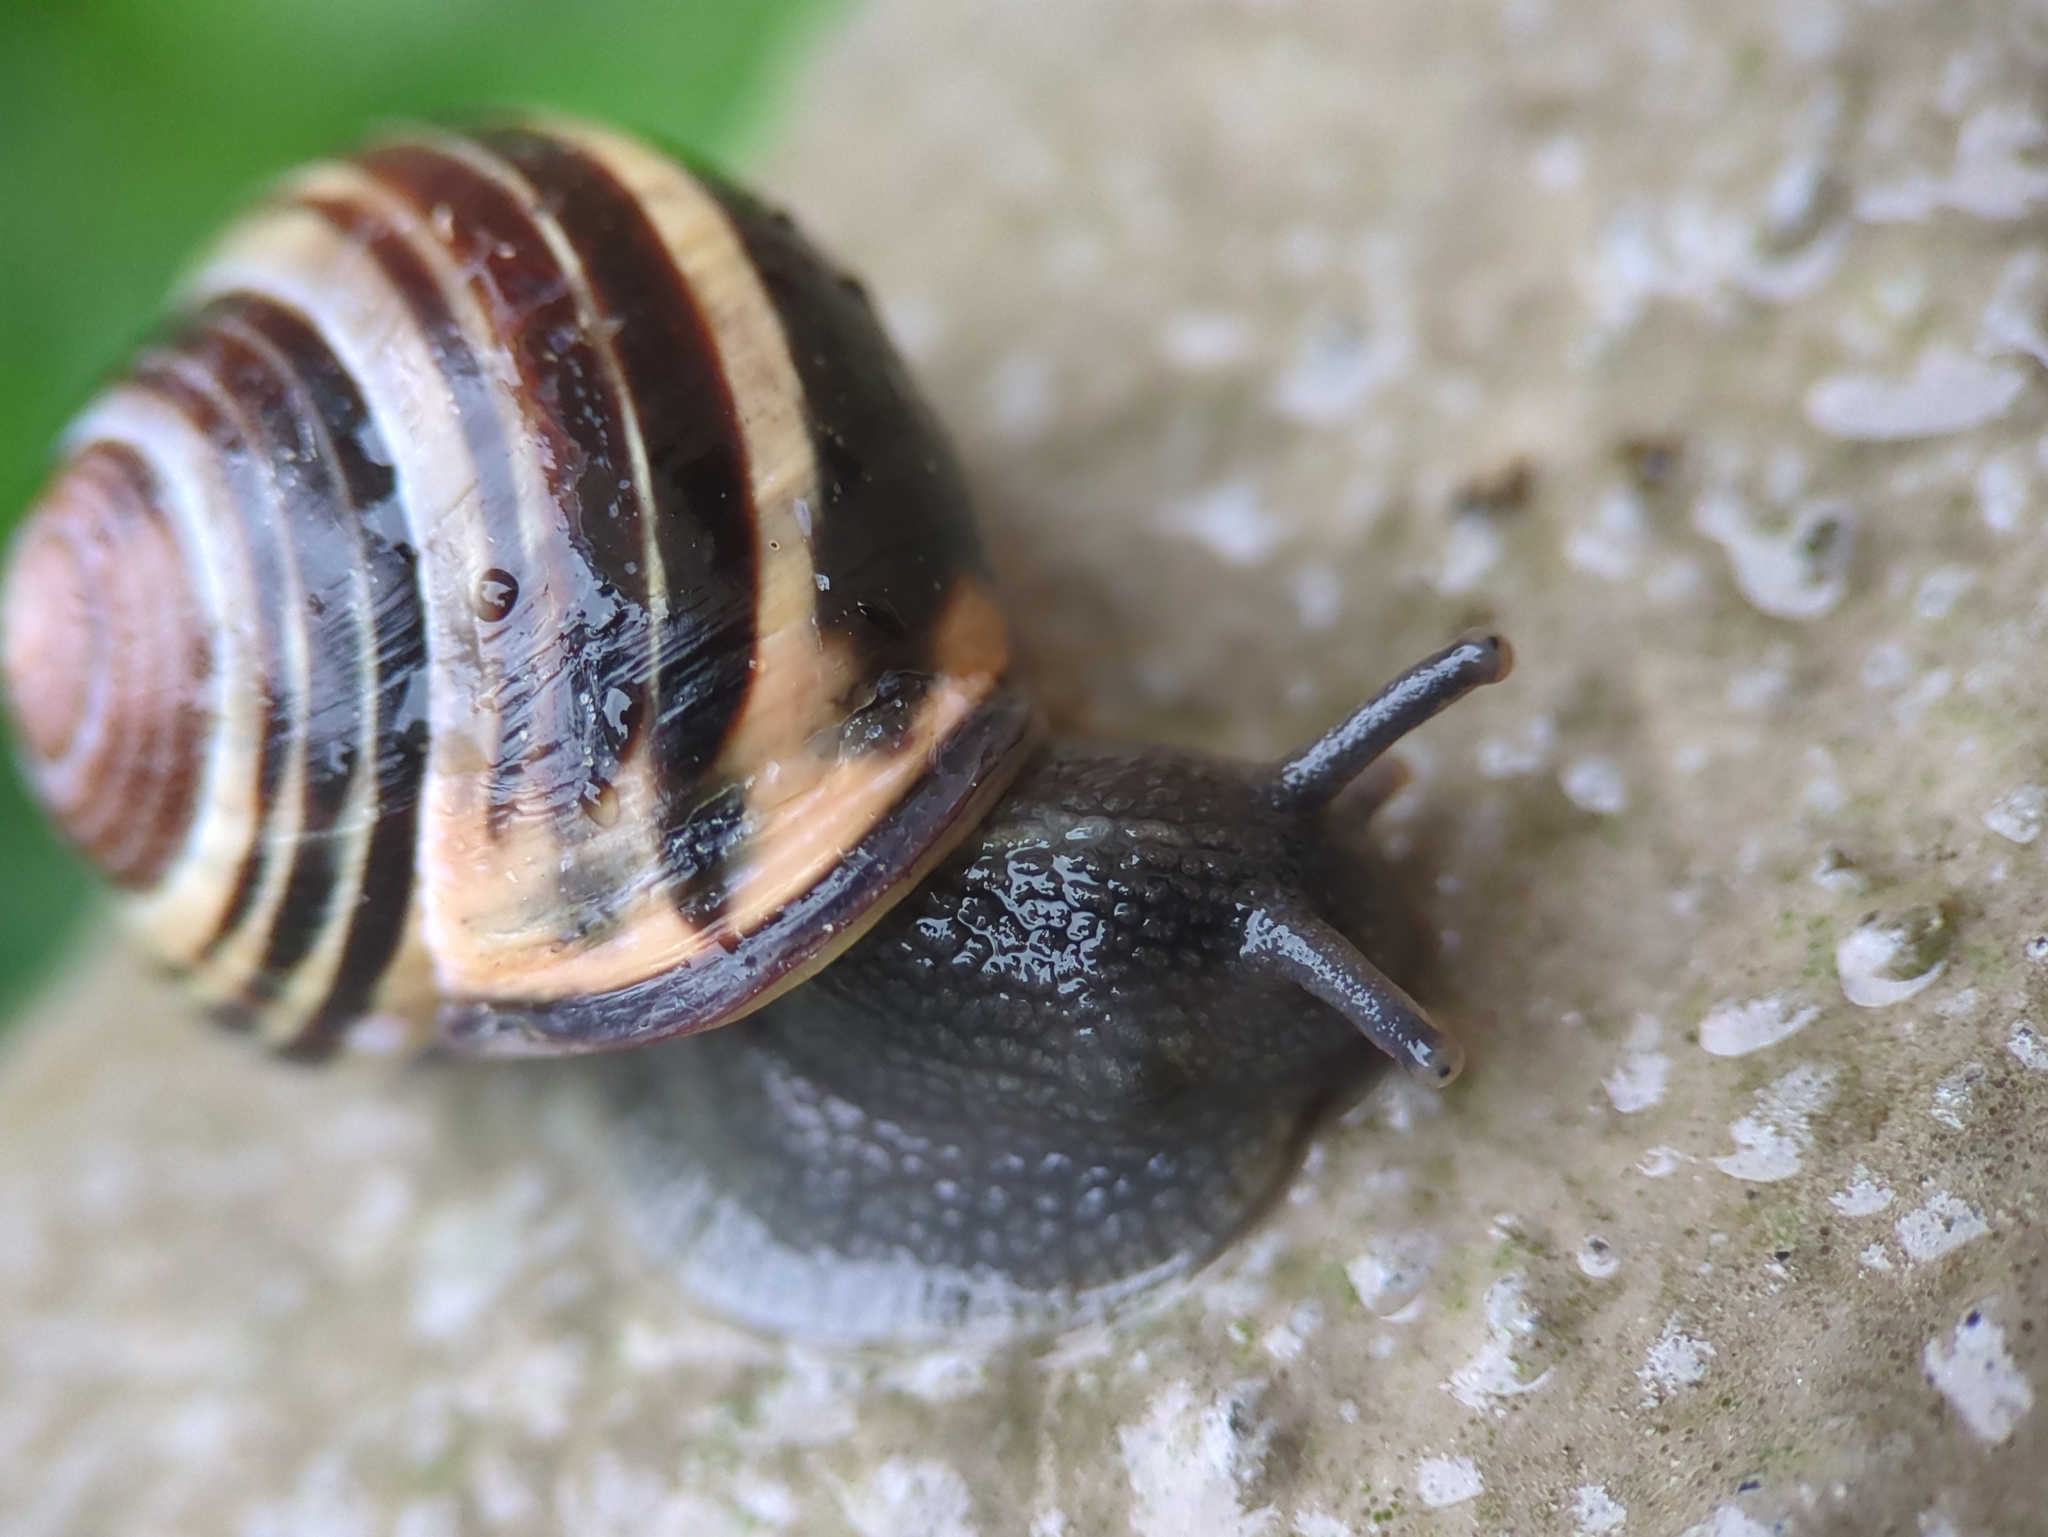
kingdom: Animalia
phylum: Mollusca
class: Gastropoda
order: Stylommatophora
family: Helicidae
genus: Cepaea
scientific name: Cepaea nemoralis
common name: Grovesnail
